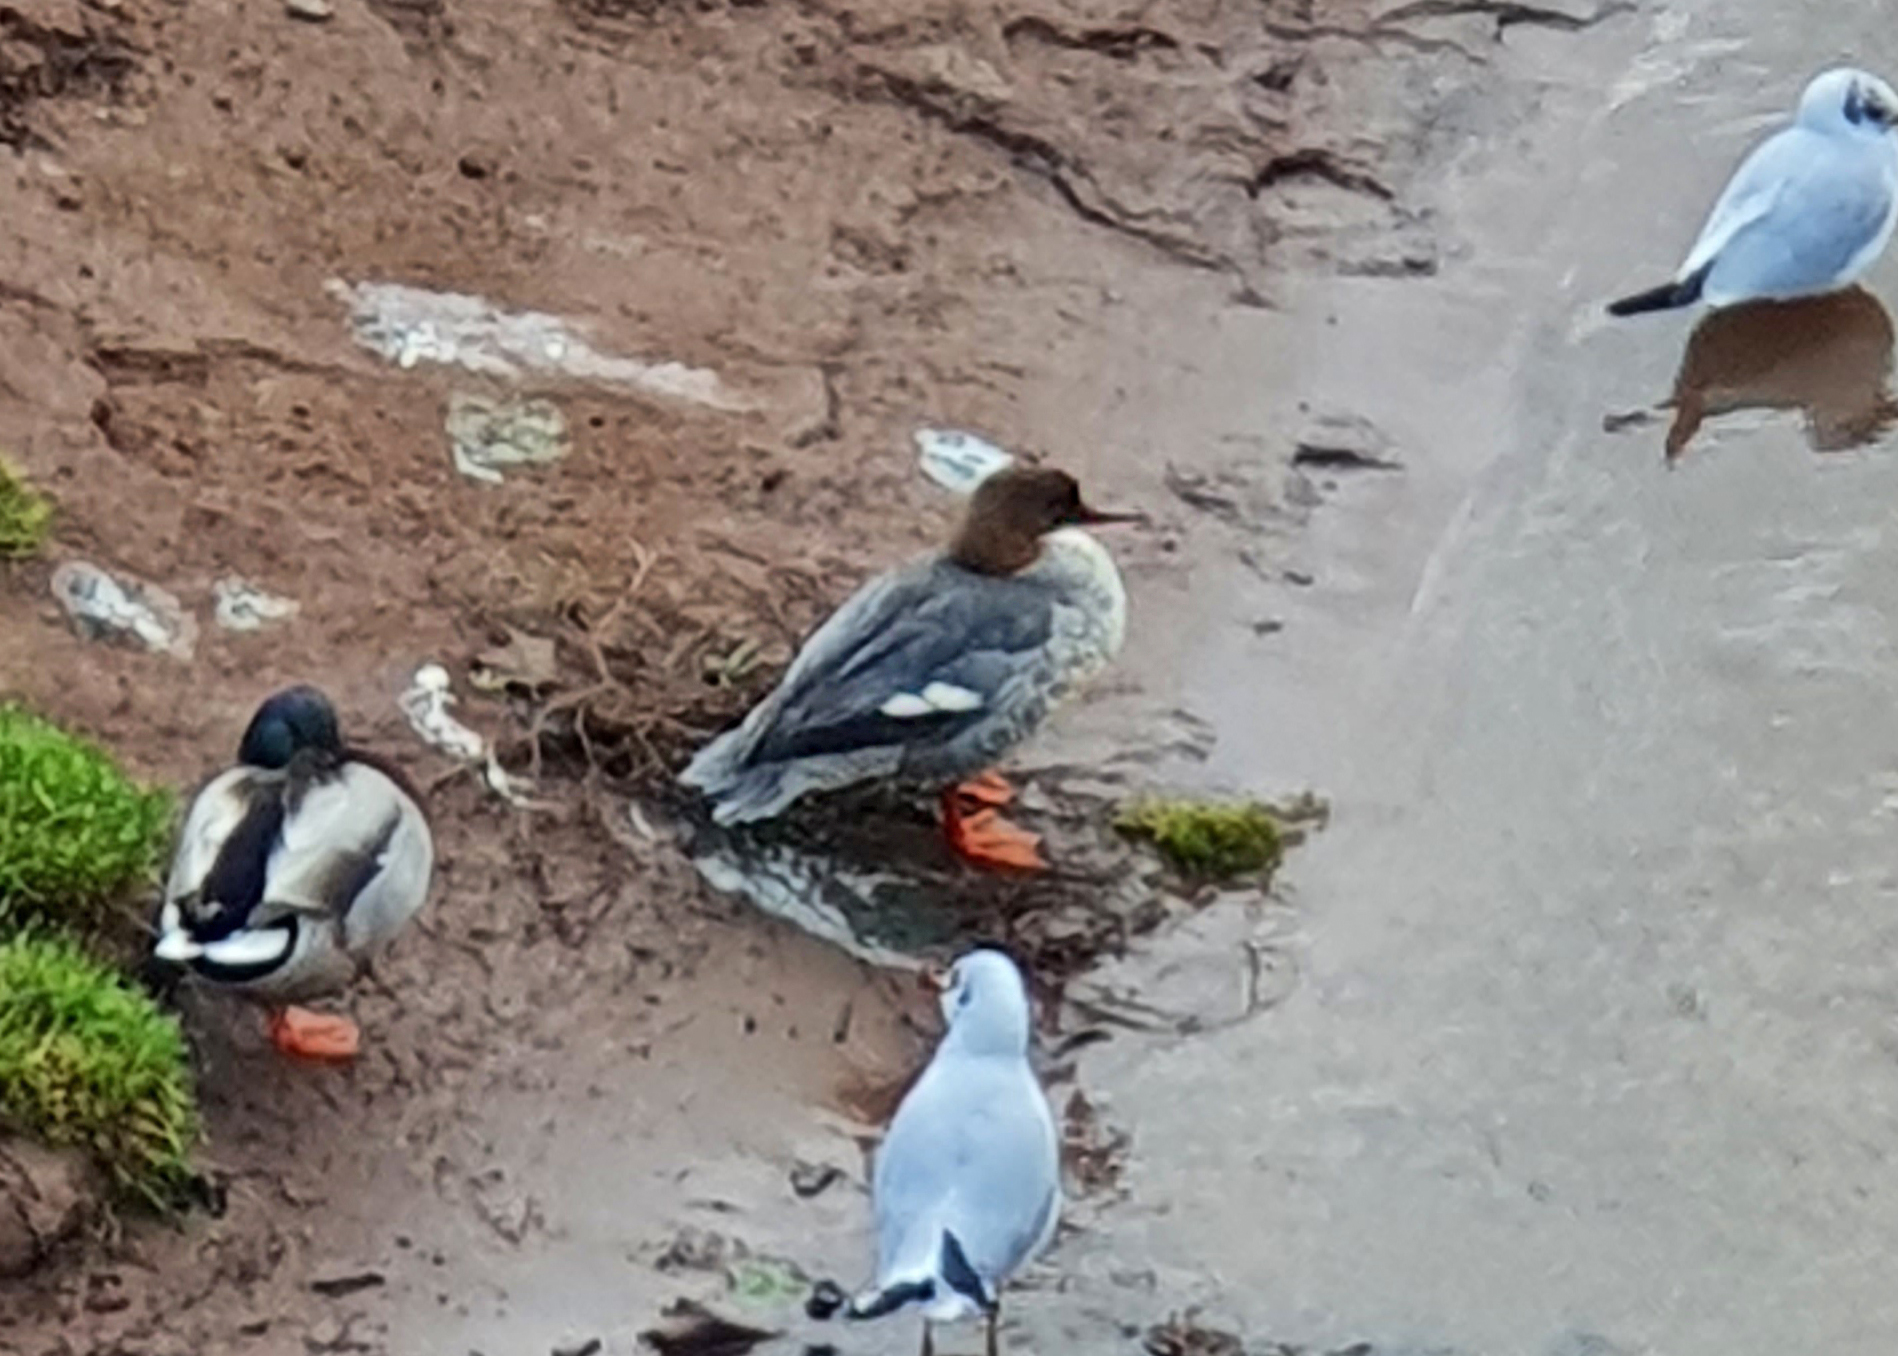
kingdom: Animalia
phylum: Chordata
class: Aves
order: Anseriformes
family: Anatidae
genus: Mergus
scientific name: Mergus merganser
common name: Common merganser
